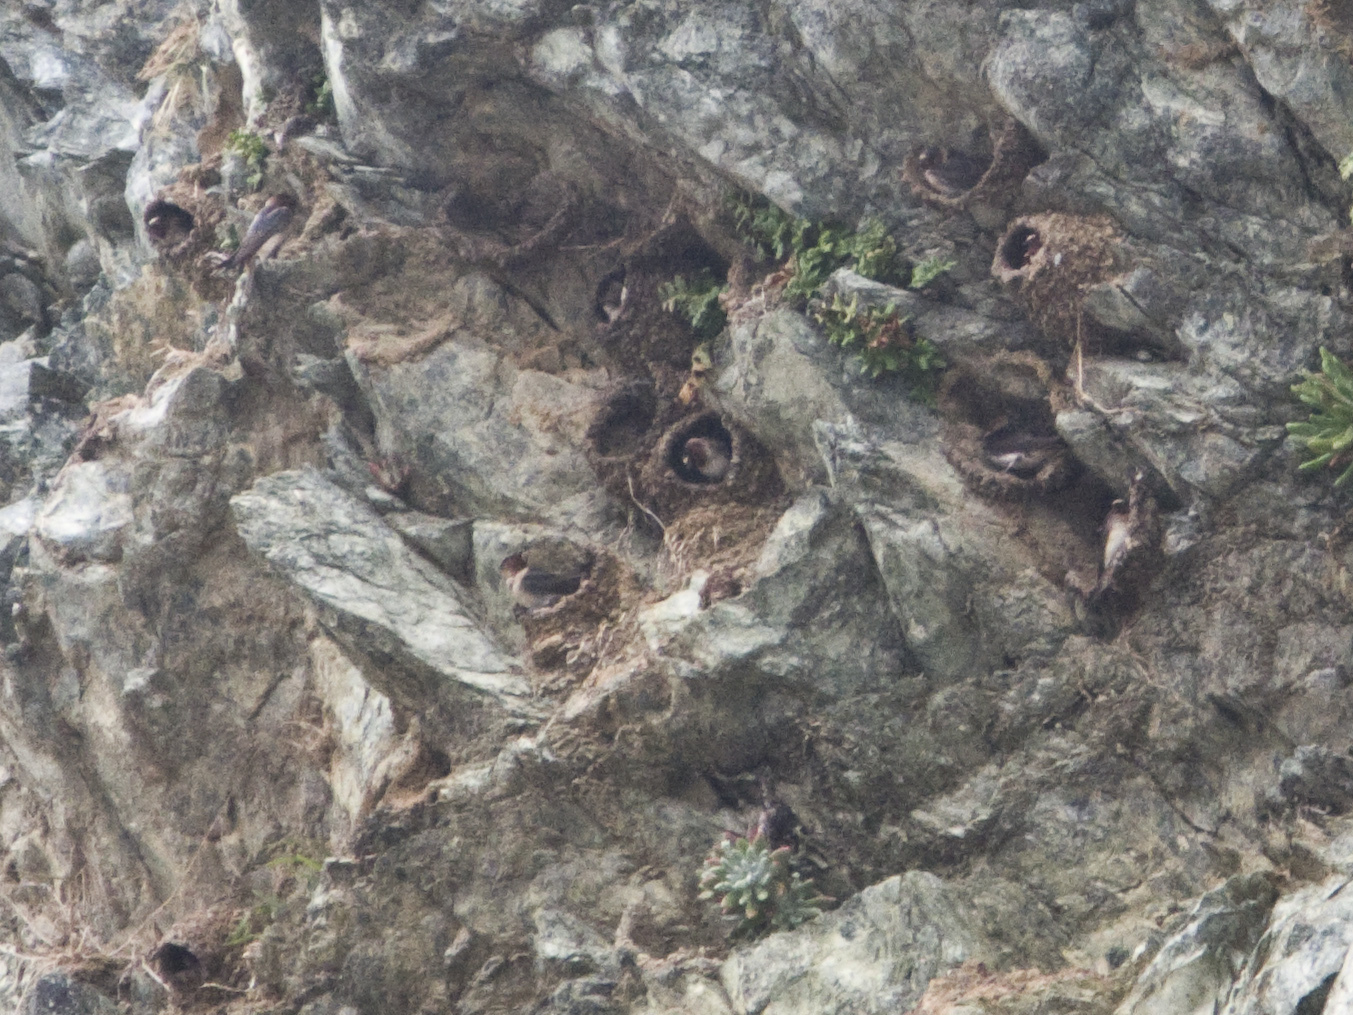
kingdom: Animalia
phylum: Chordata
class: Aves
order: Passeriformes
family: Hirundinidae
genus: Petrochelidon
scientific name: Petrochelidon pyrrhonota
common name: American cliff swallow
